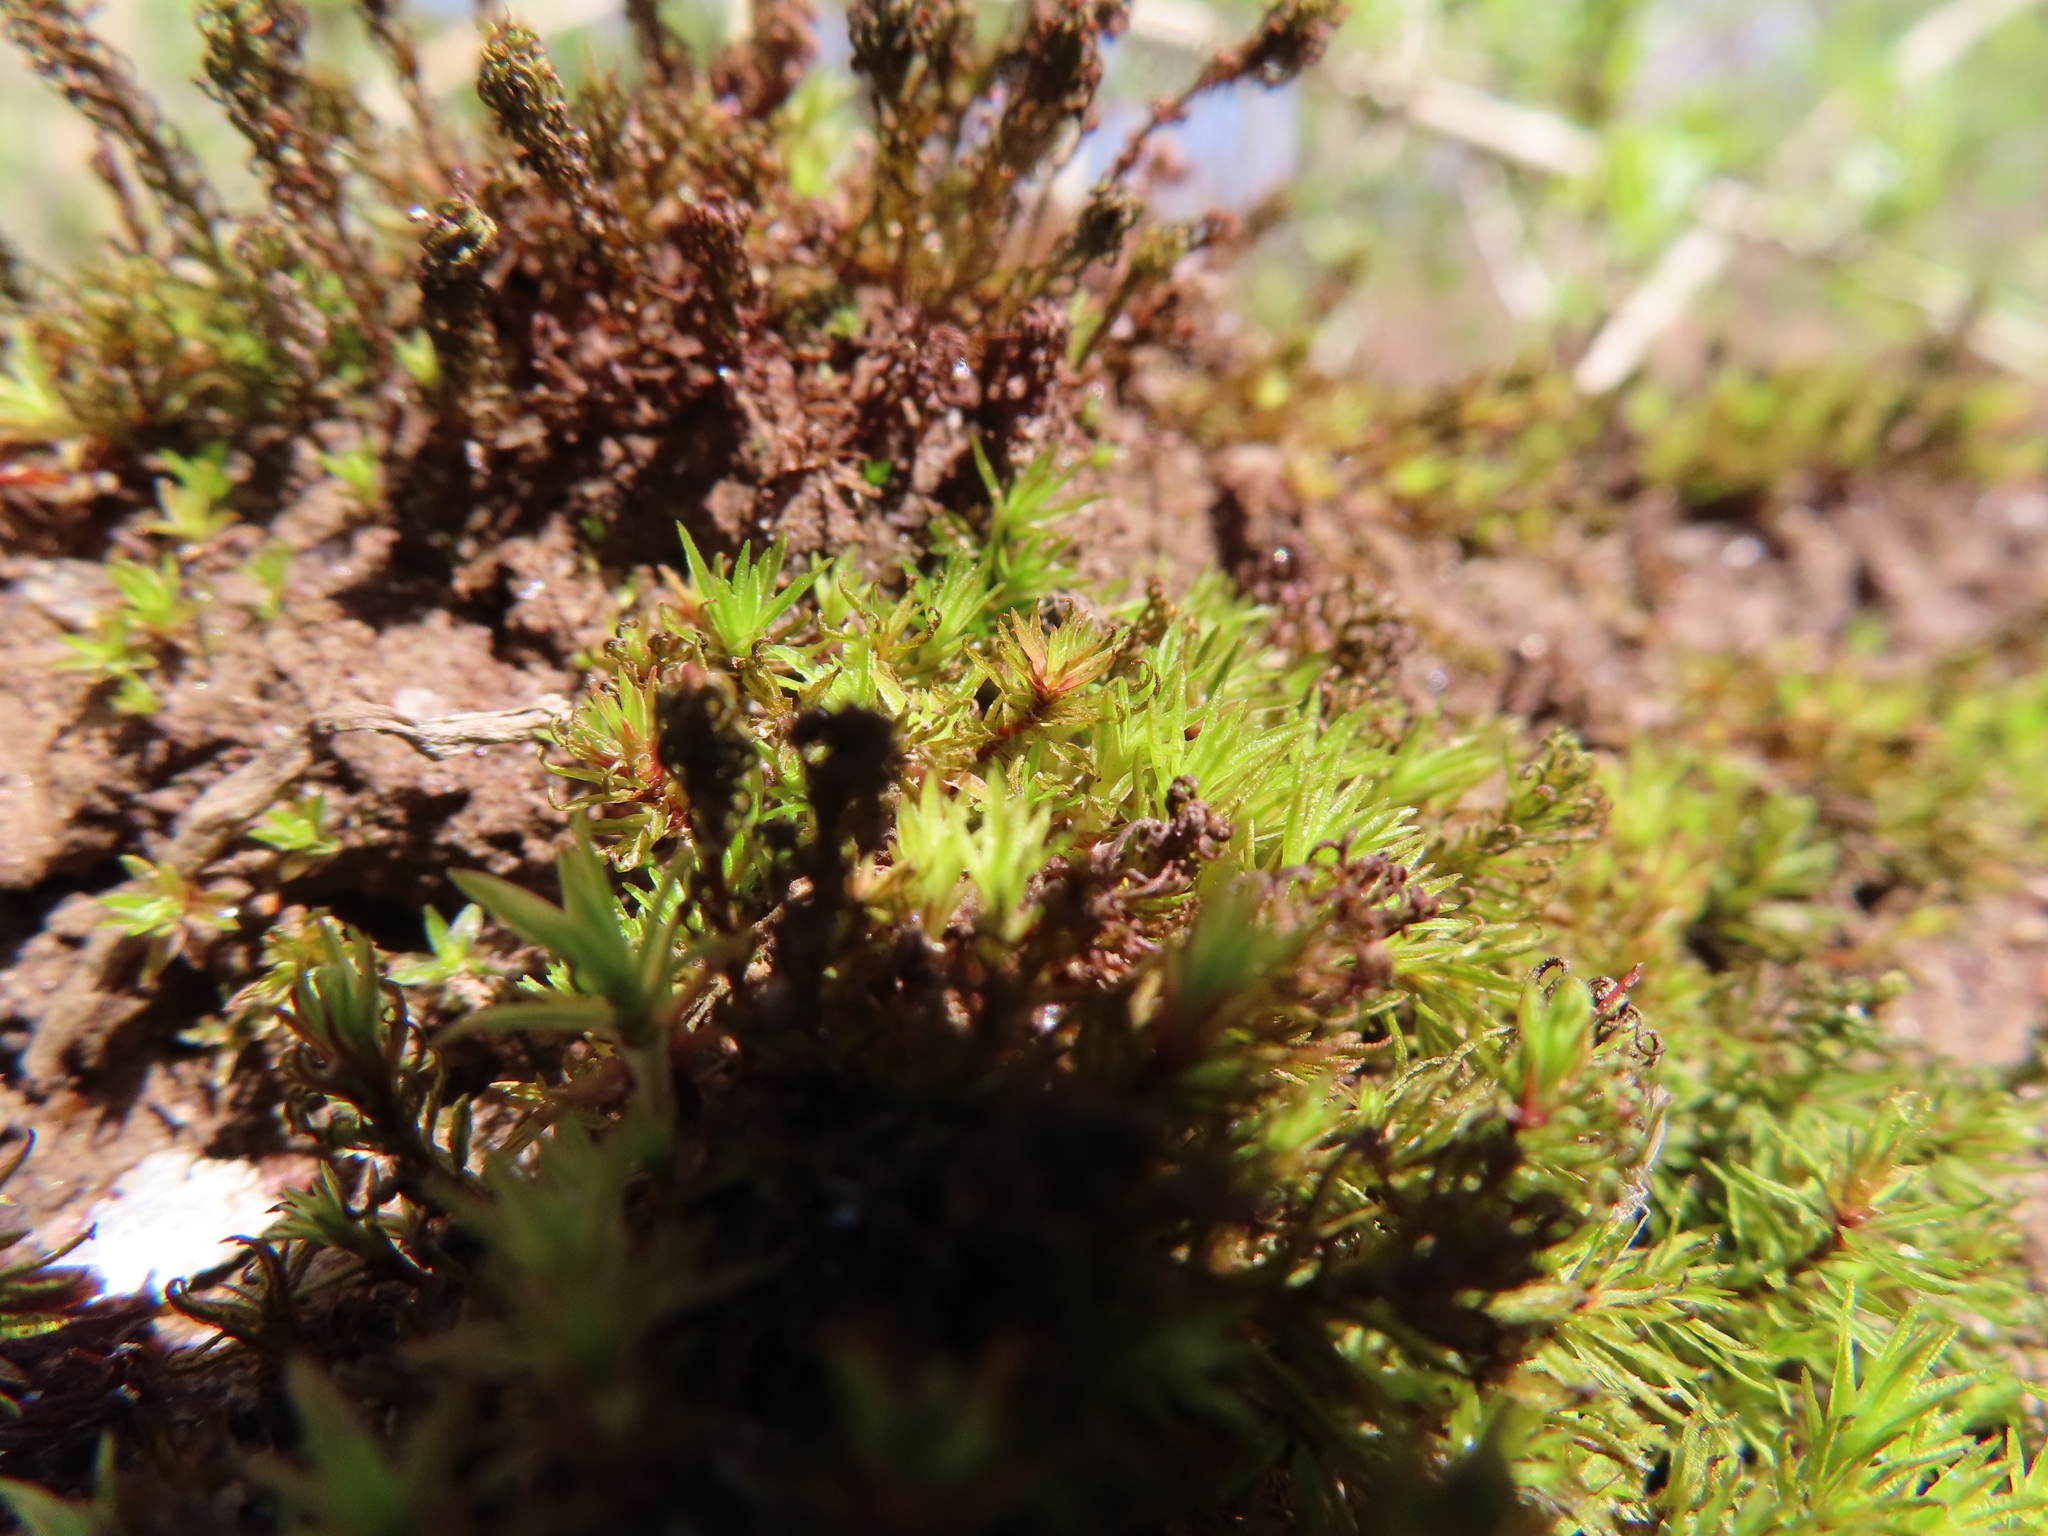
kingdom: Plantae
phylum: Bryophyta
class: Polytrichopsida
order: Polytrichales
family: Polytrichaceae
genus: Atrichum
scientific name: Atrichum angustatum
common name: Lesser smoothcap
